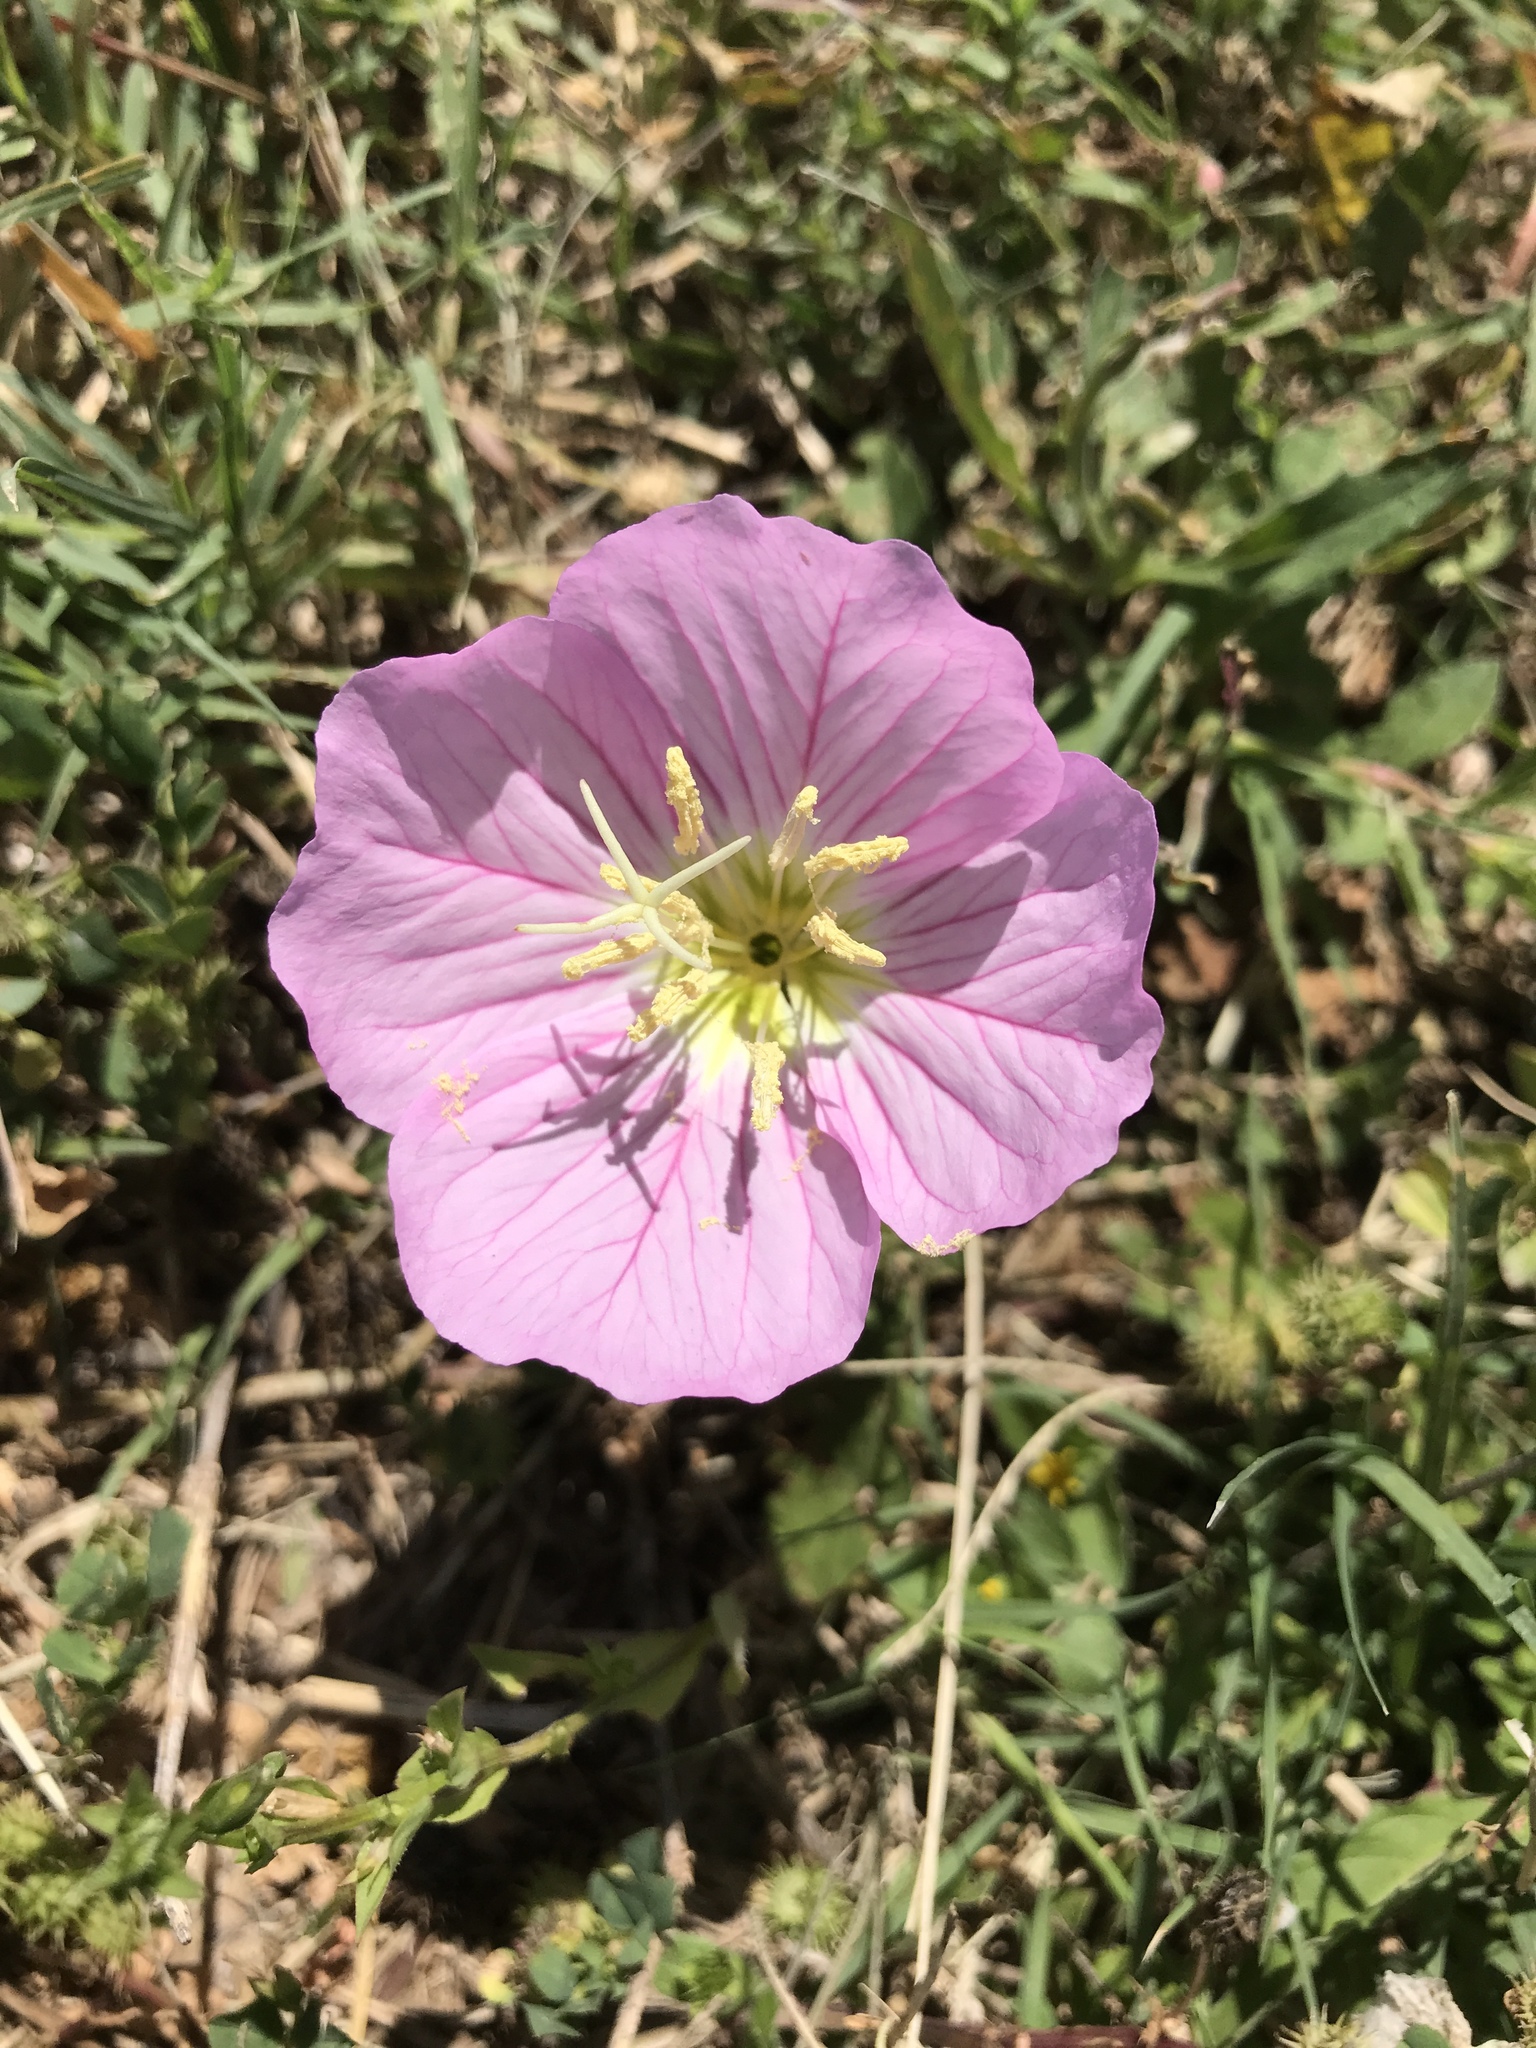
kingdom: Plantae
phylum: Tracheophyta
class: Magnoliopsida
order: Myrtales
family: Onagraceae
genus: Oenothera
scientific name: Oenothera speciosa
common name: White evening-primrose
